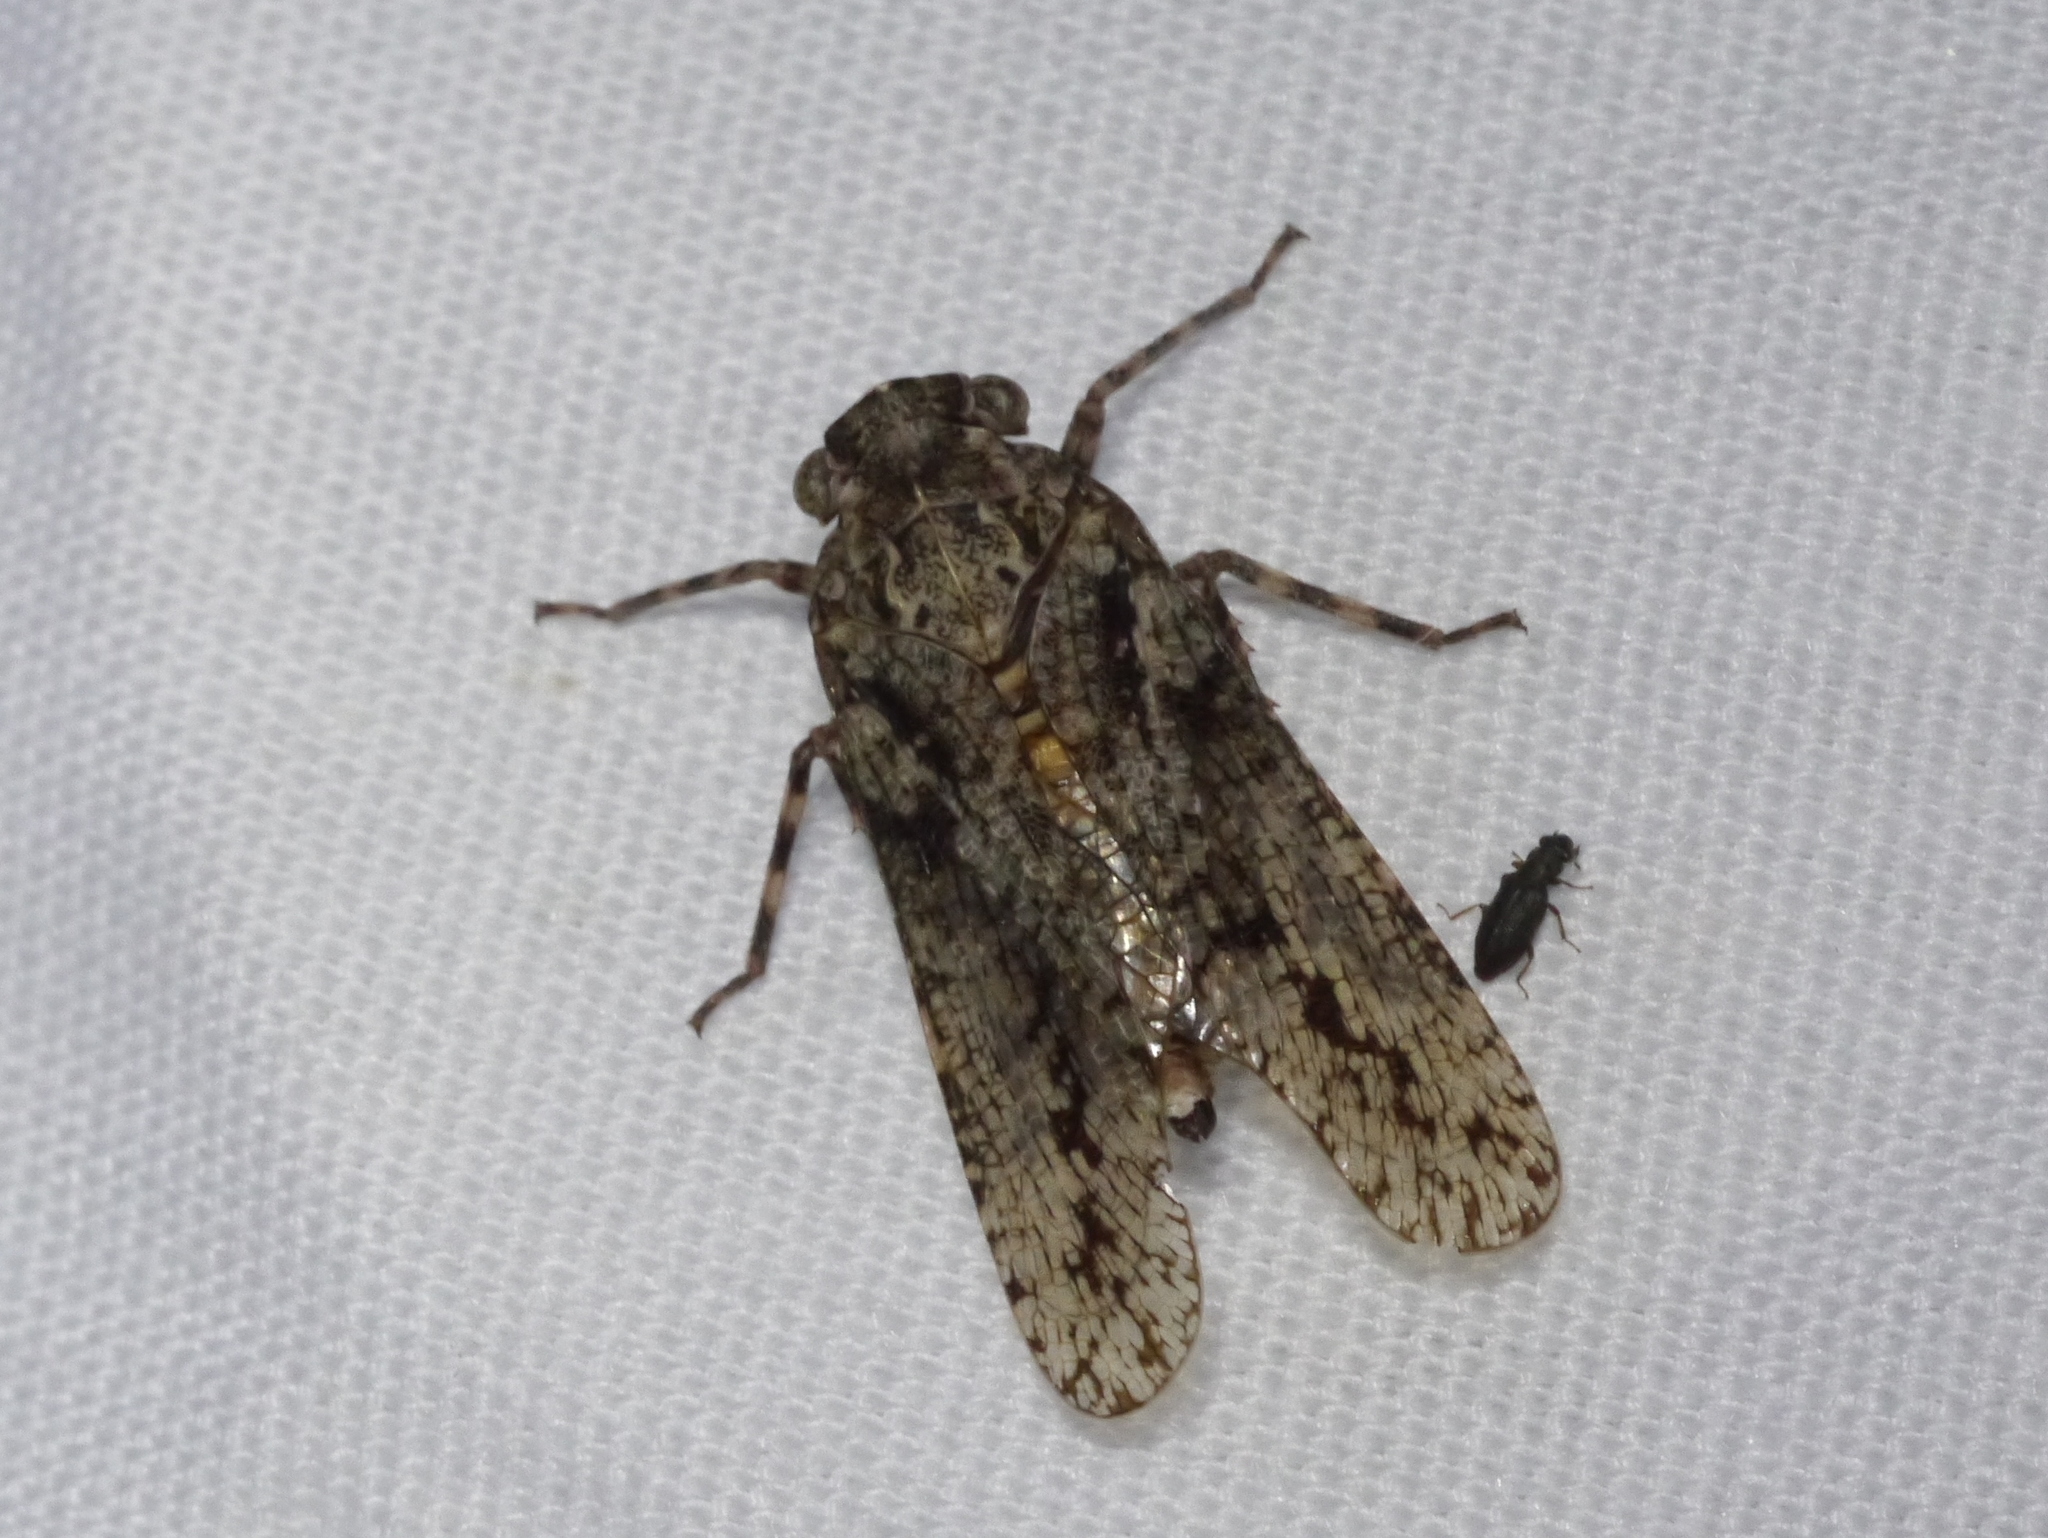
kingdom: Animalia
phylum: Arthropoda
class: Insecta
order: Hemiptera
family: Fulgoridae
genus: Alphina
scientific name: Alphina glauca
